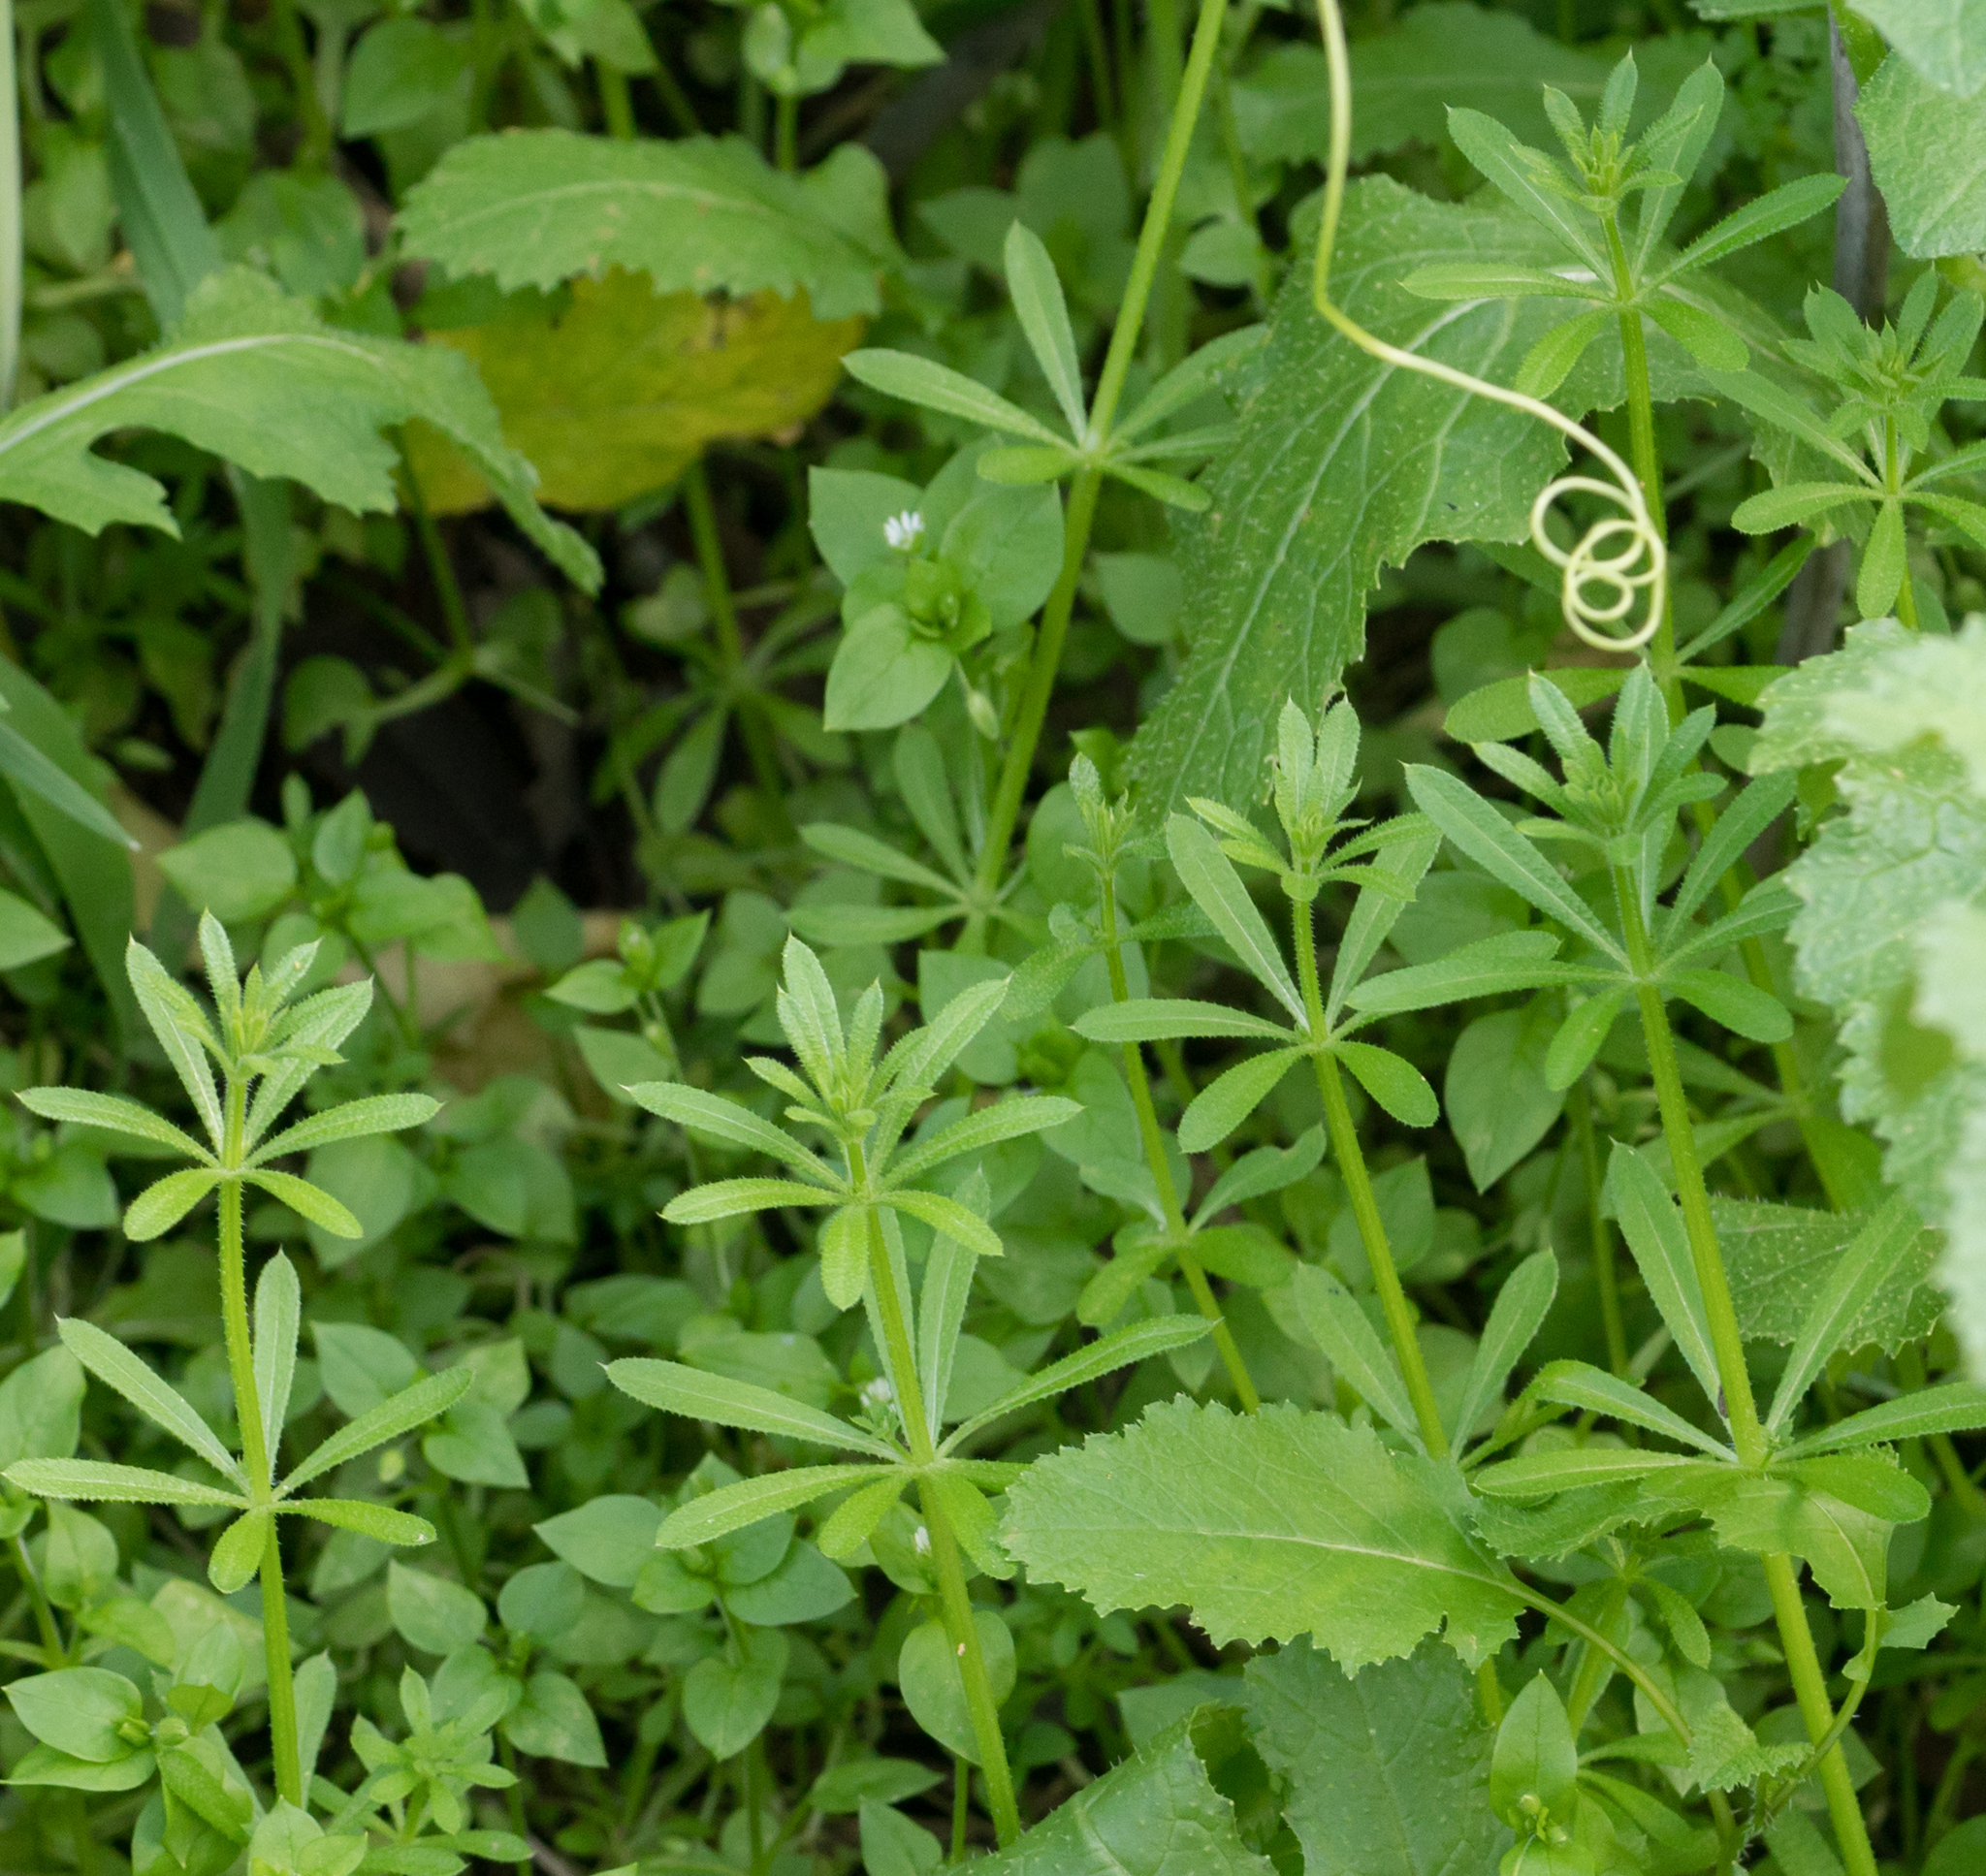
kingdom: Plantae
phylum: Tracheophyta
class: Magnoliopsida
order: Gentianales
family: Rubiaceae
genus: Galium
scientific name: Galium aparine
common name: Cleavers
